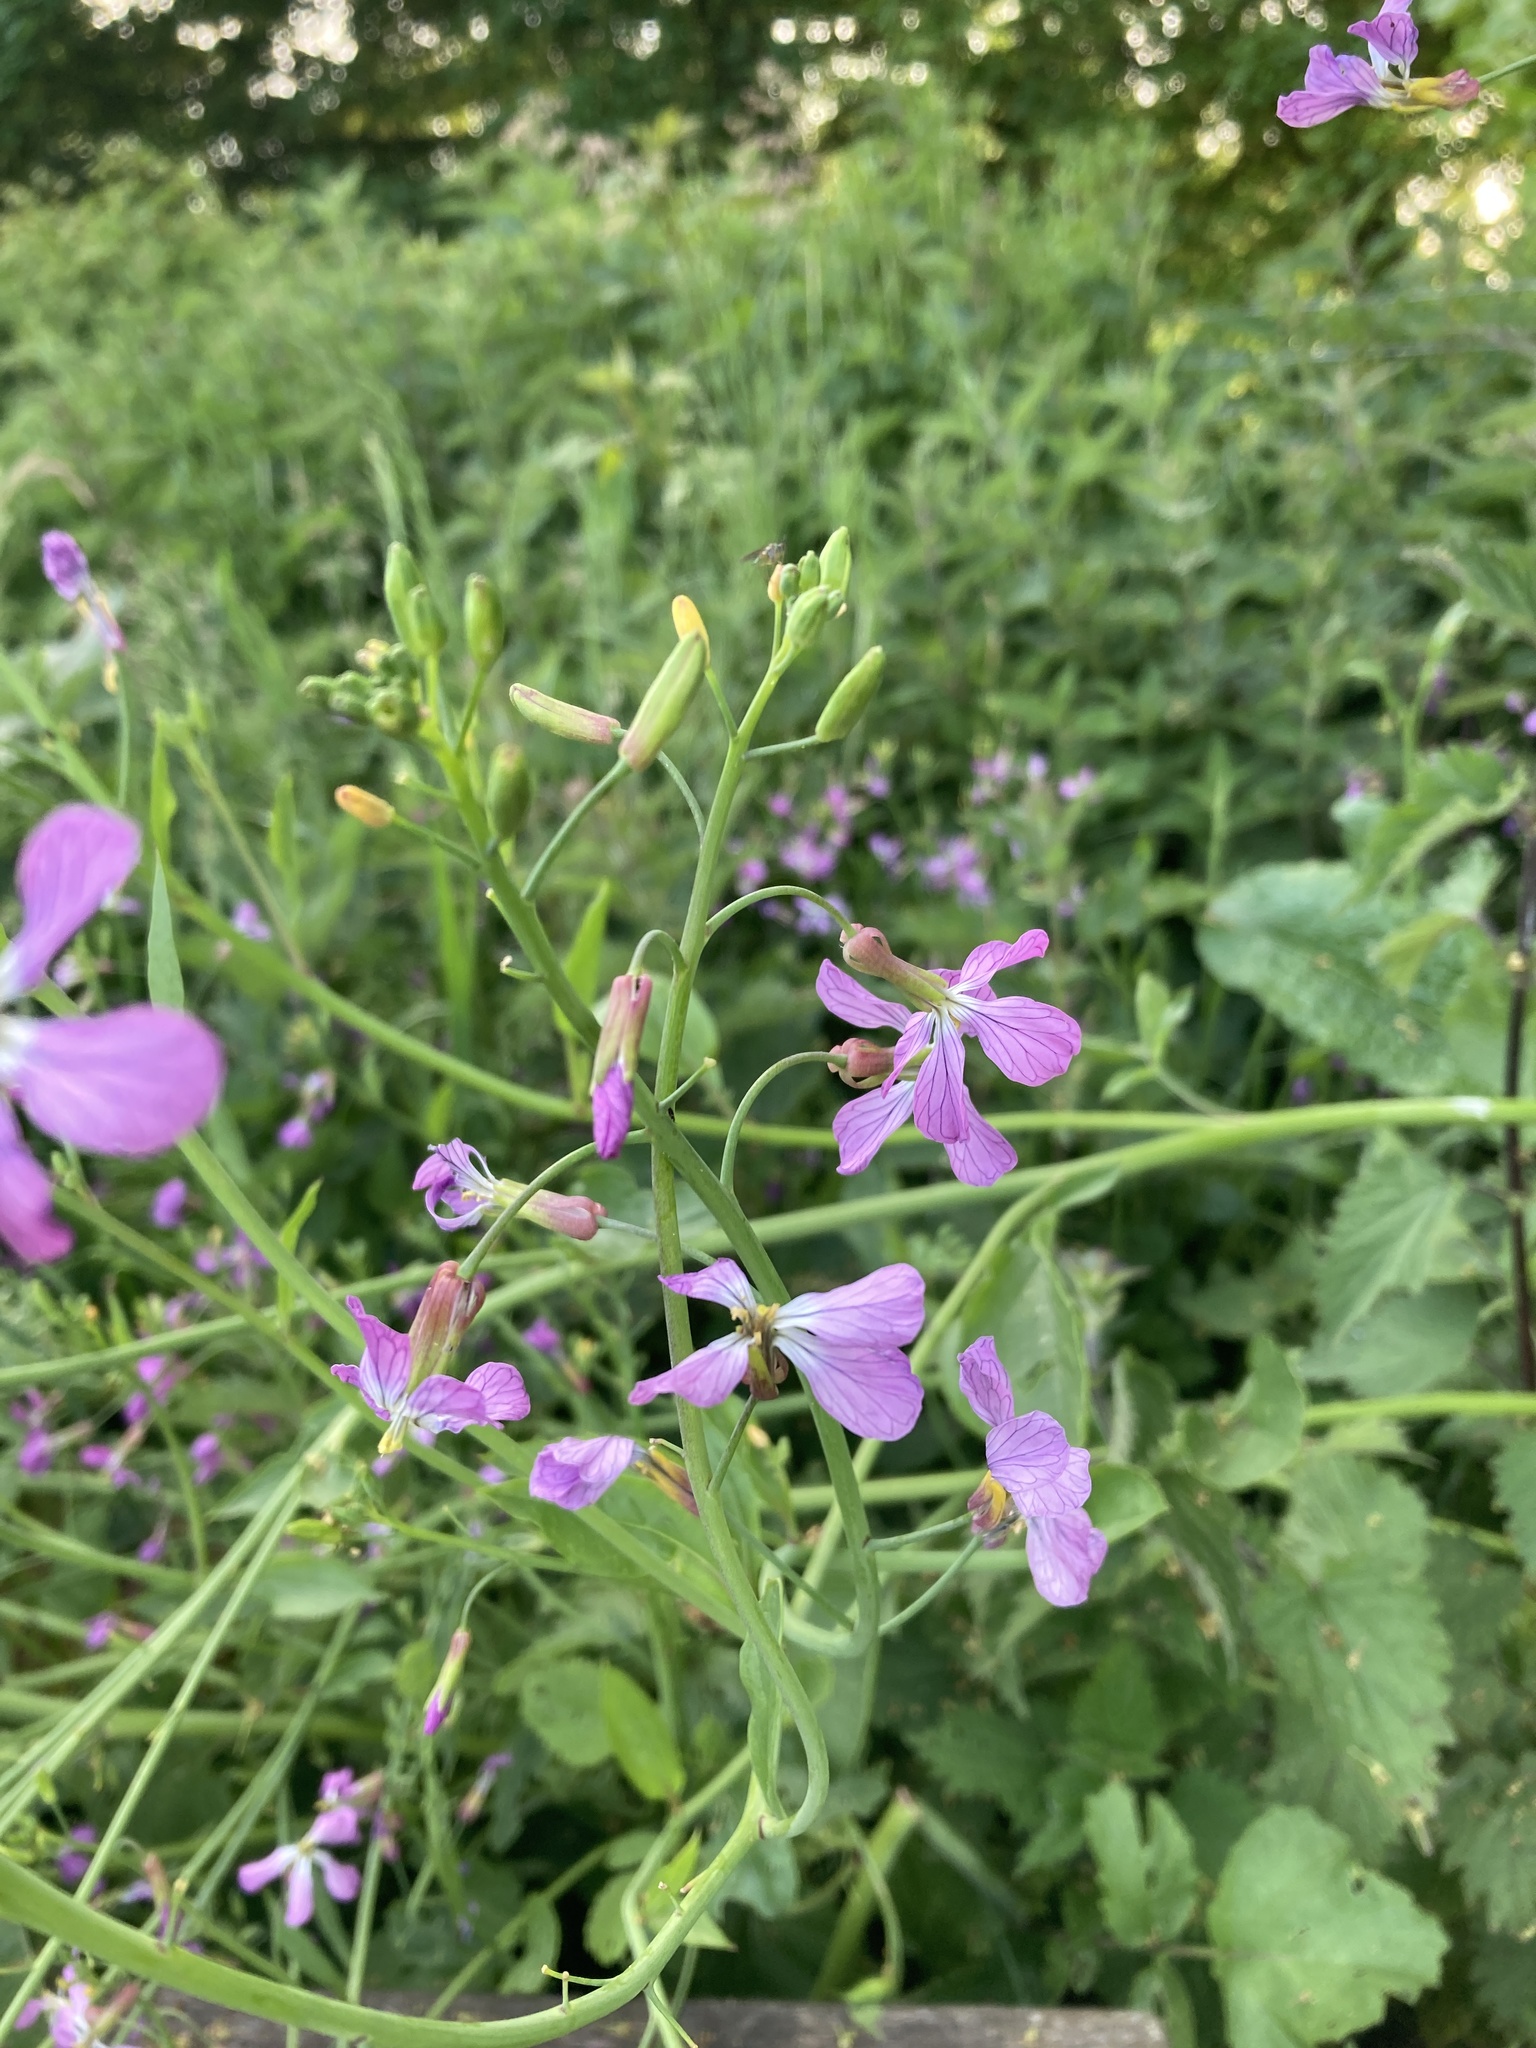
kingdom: Plantae
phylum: Tracheophyta
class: Magnoliopsida
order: Brassicales
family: Brassicaceae
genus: Raphanus
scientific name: Raphanus sativus
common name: Cultivated radish
